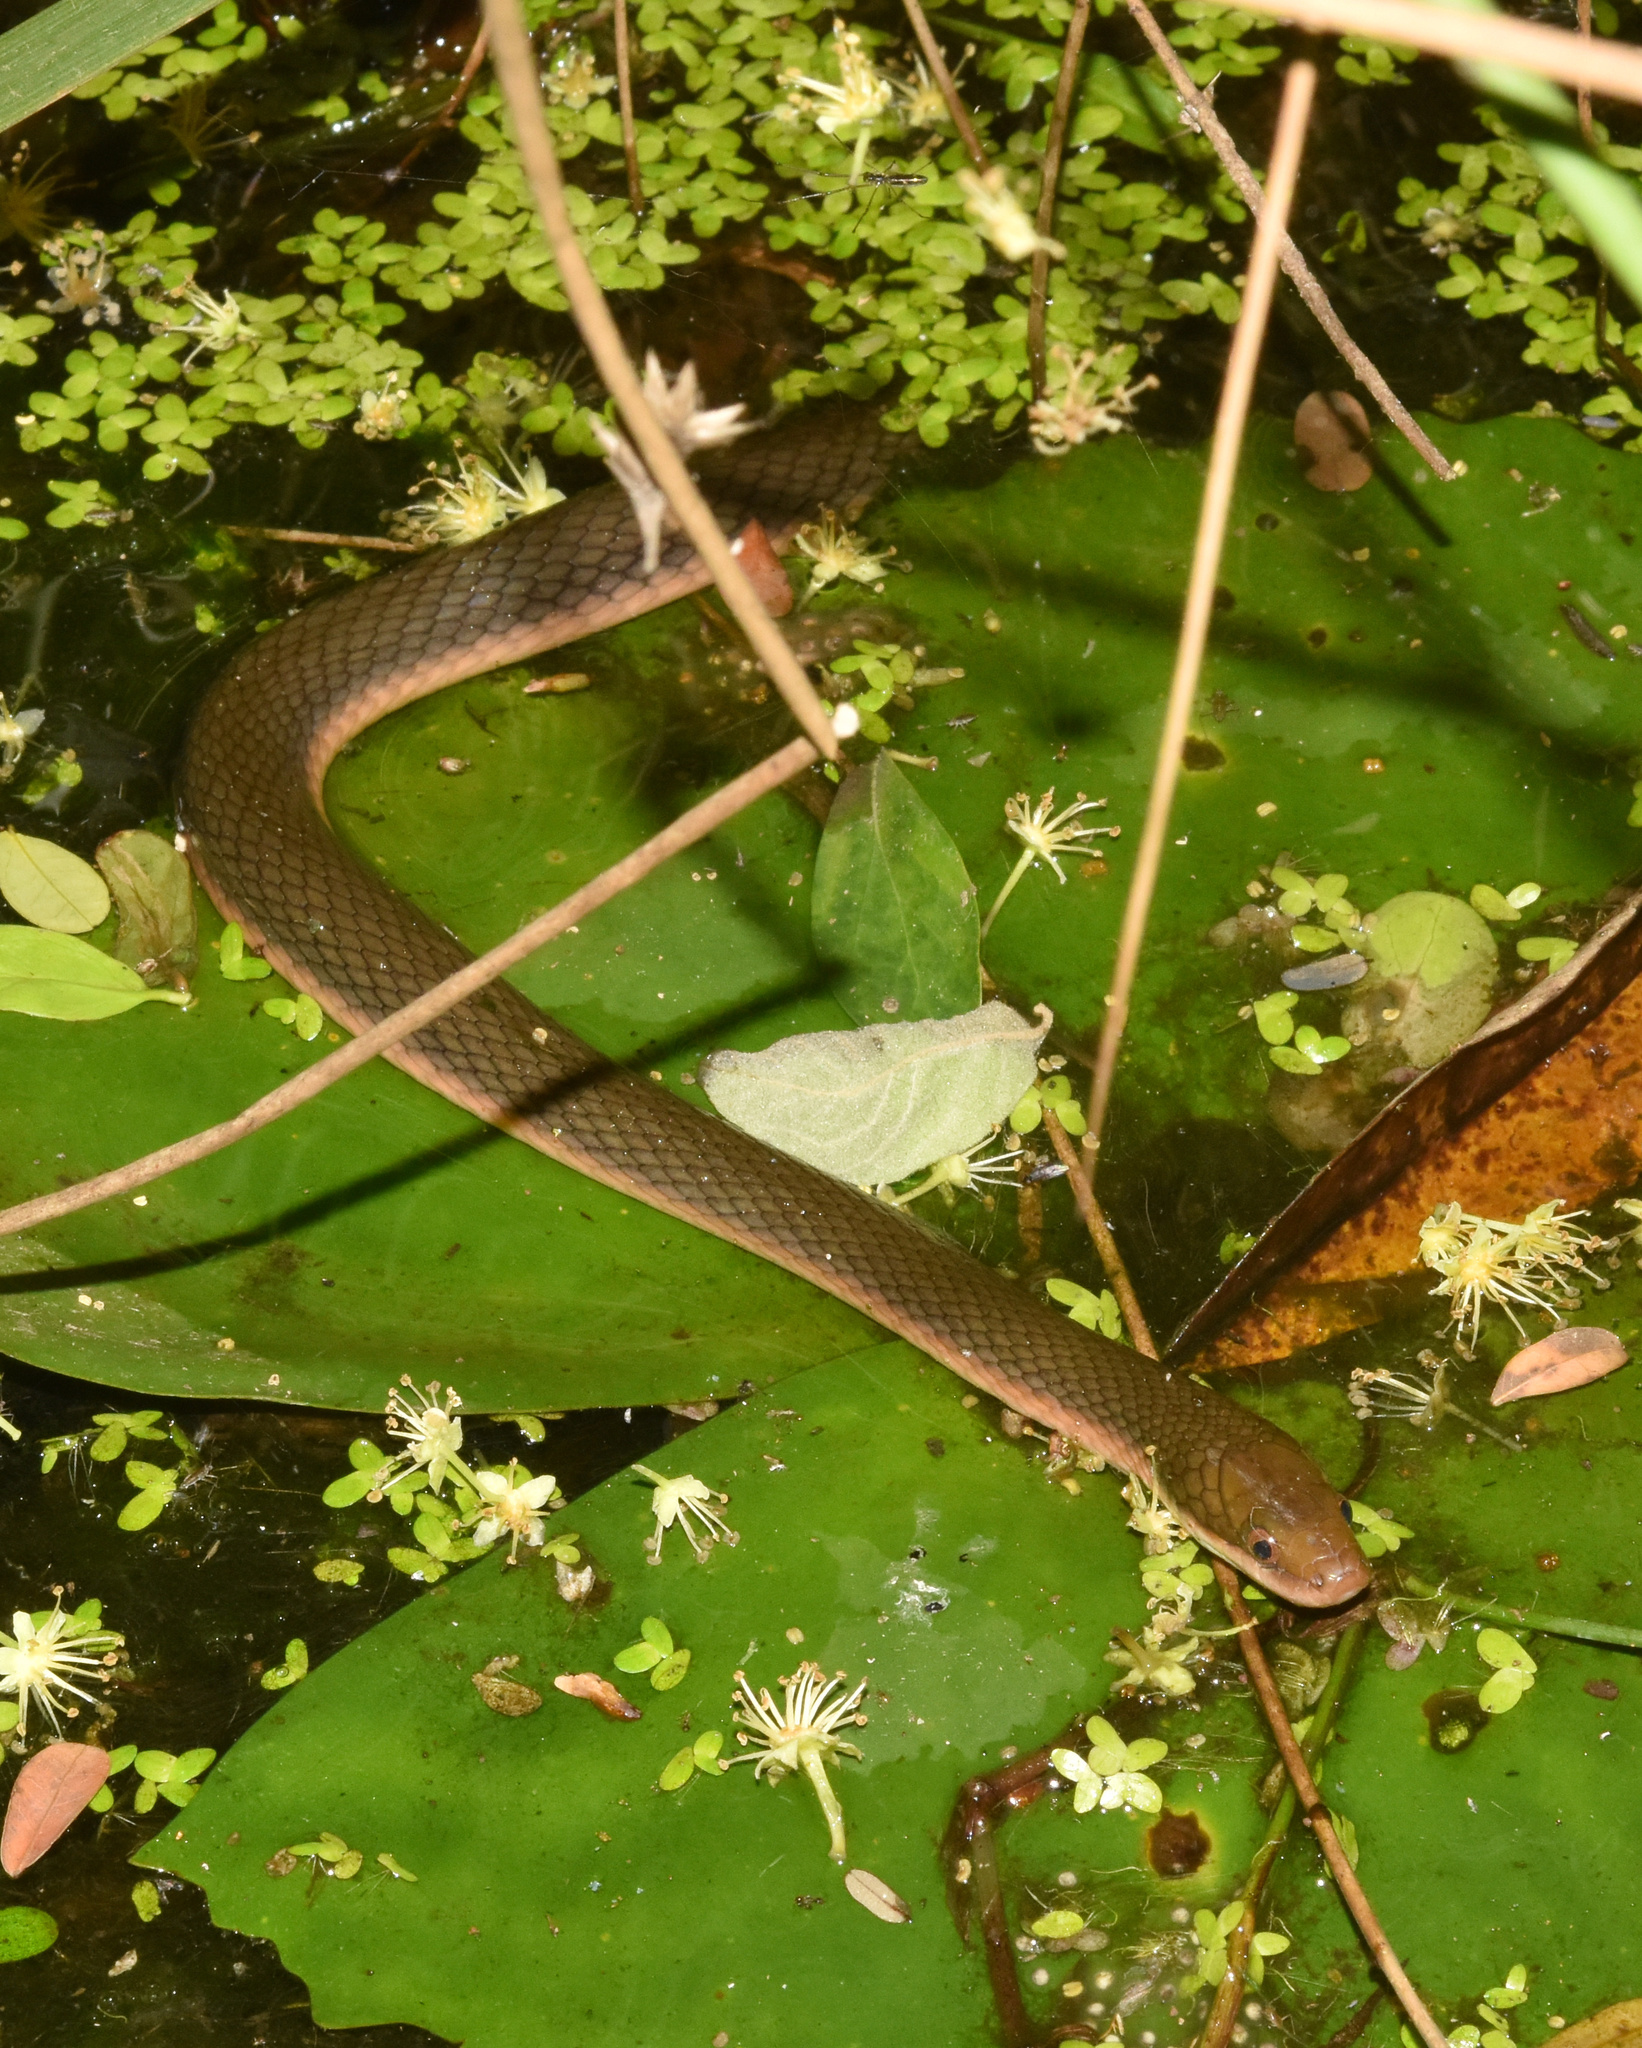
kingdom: Animalia
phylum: Chordata
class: Squamata
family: Lamprophiidae
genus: Lycodonomorphus
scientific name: Lycodonomorphus rufulus
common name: Brown water snake
